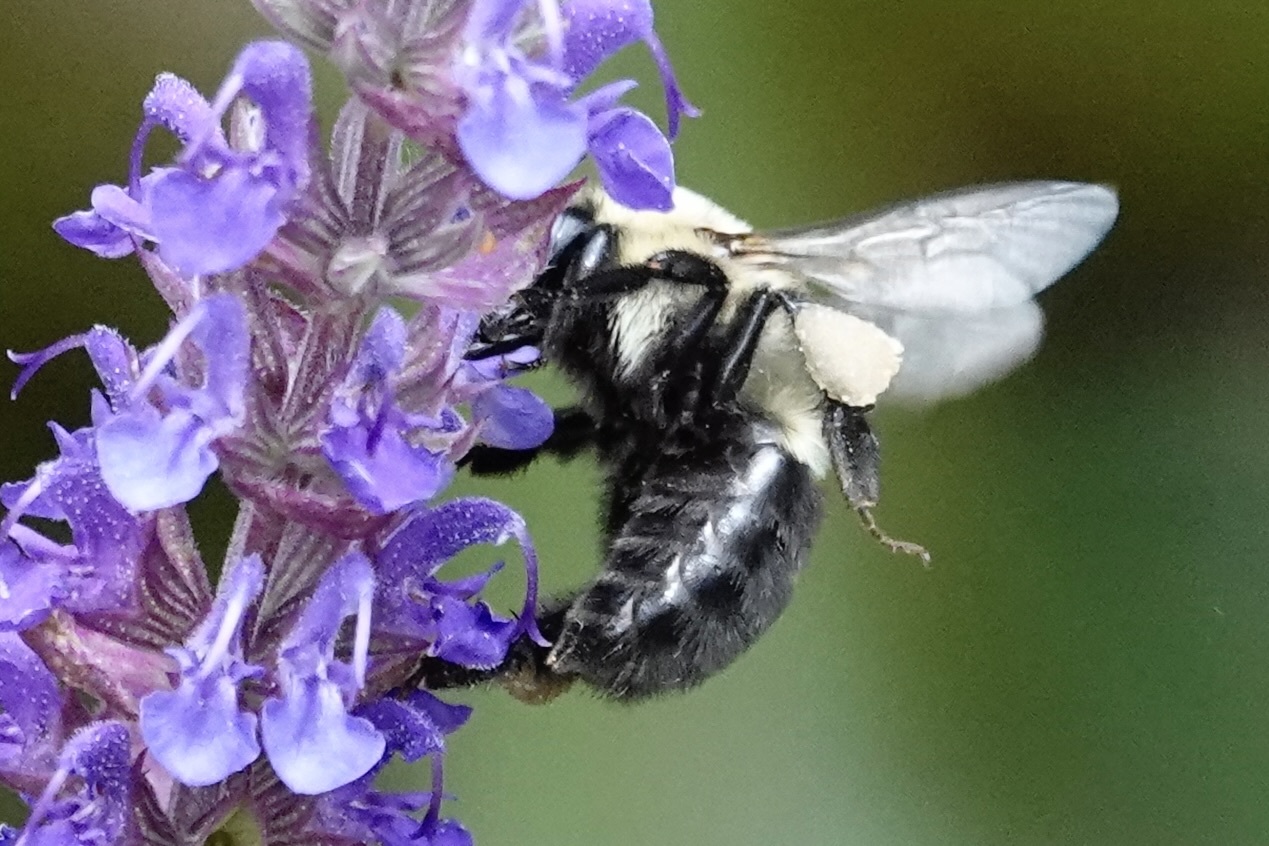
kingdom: Animalia
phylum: Arthropoda
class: Insecta
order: Hymenoptera
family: Apidae
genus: Bombus
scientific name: Bombus impatiens
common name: Common eastern bumble bee
